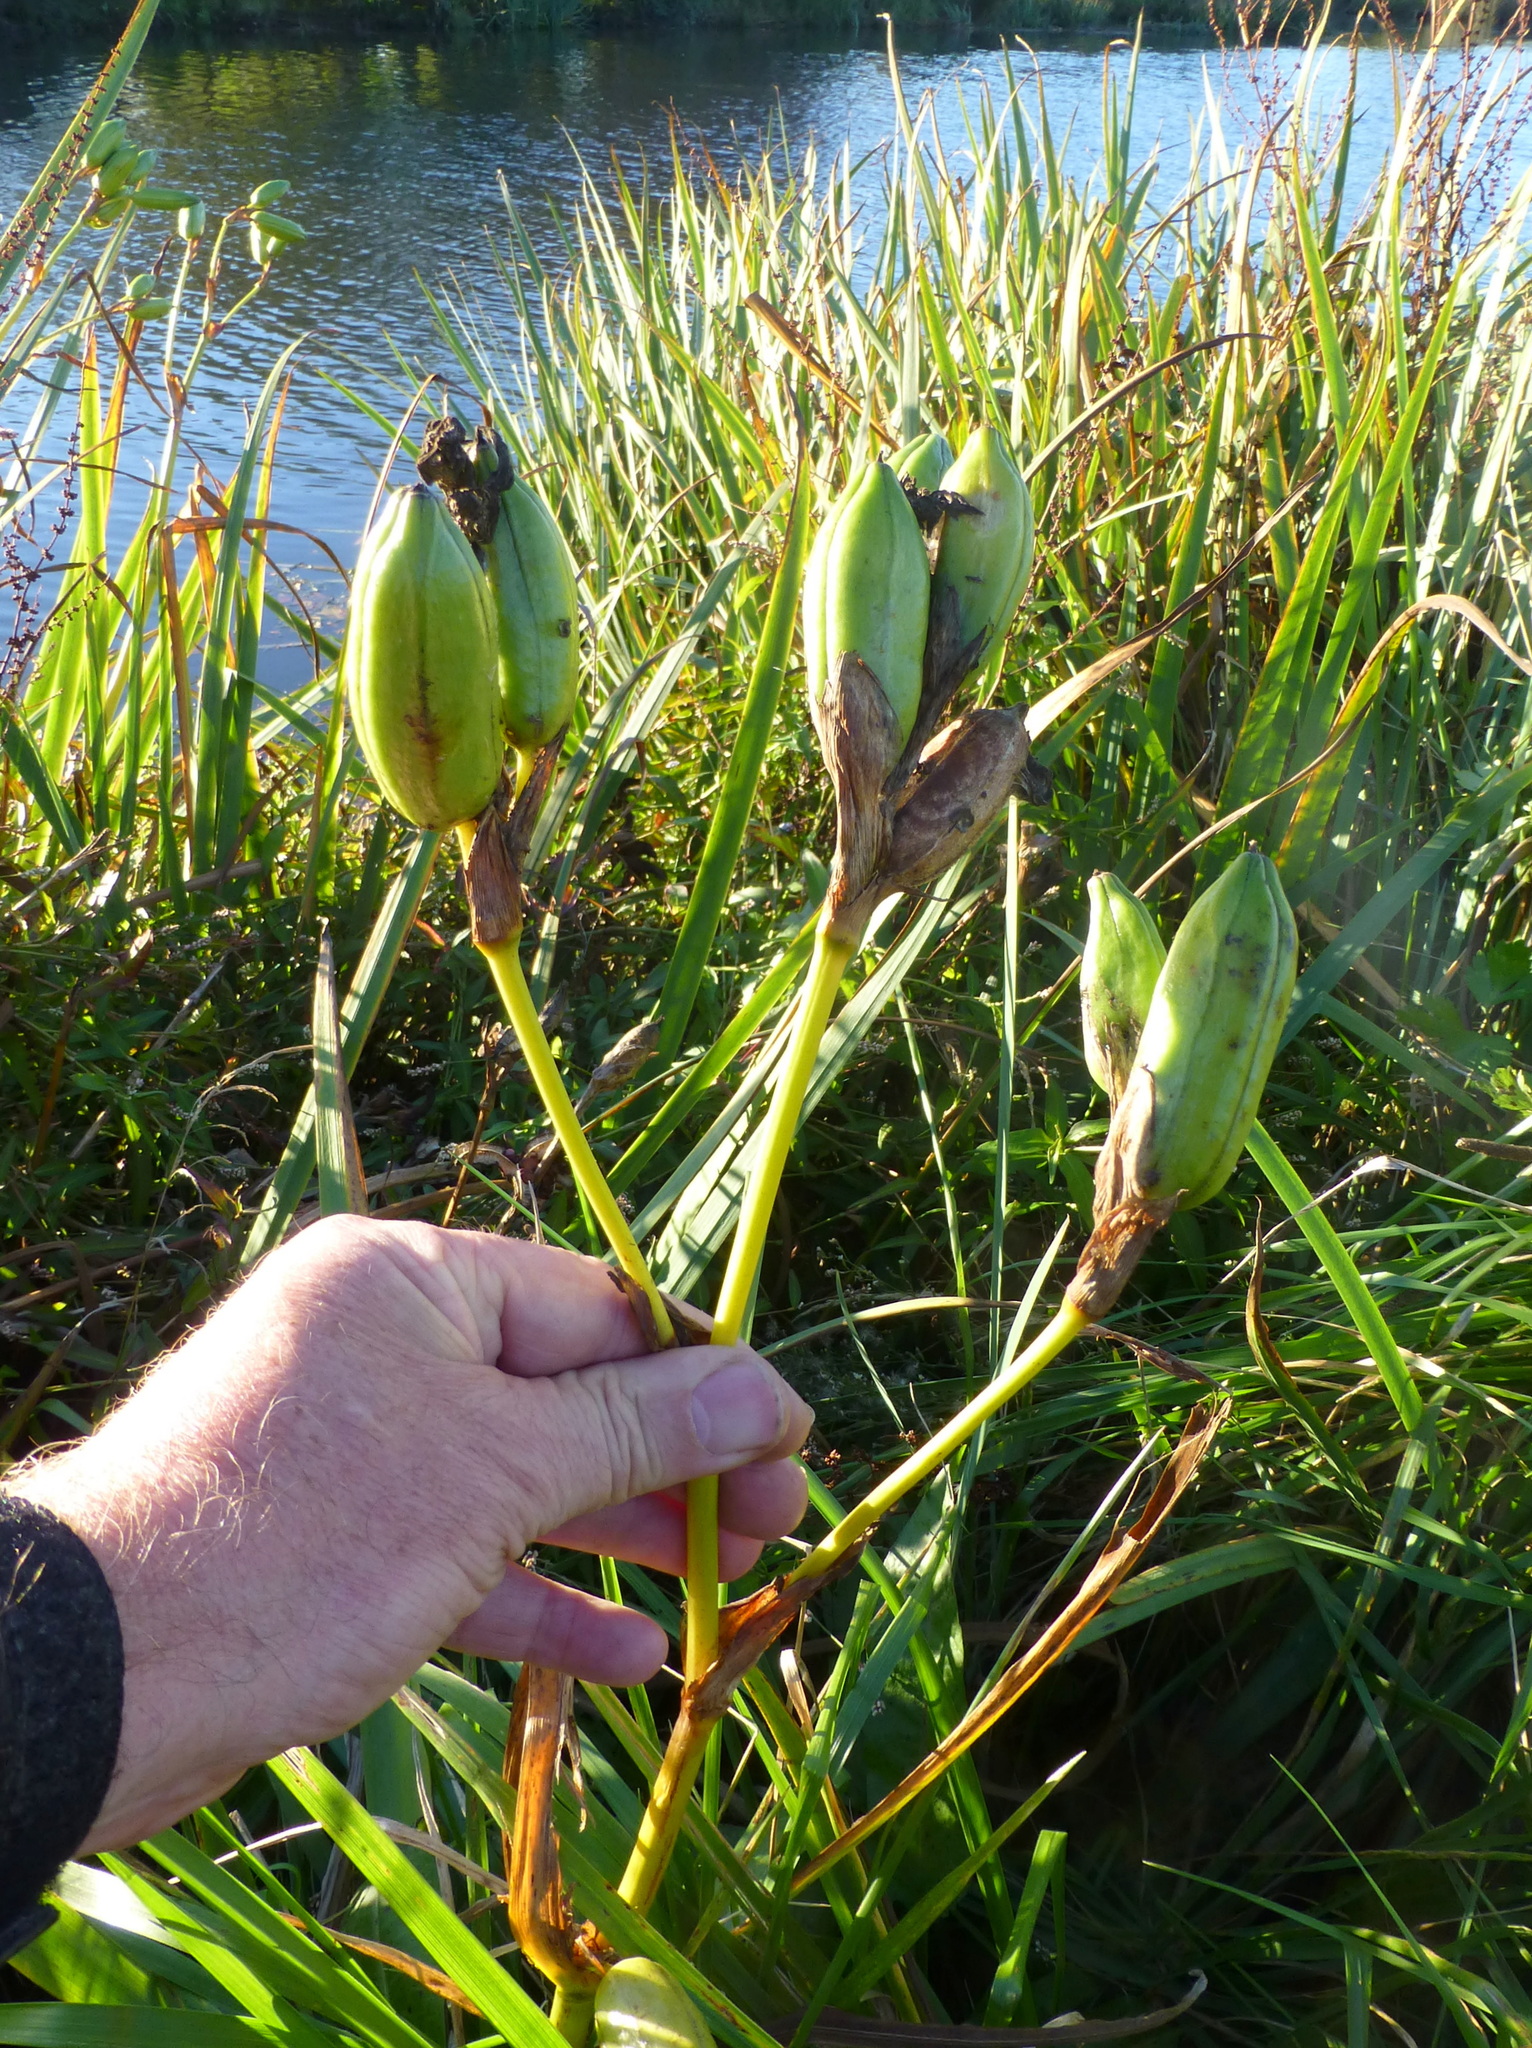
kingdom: Plantae
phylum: Tracheophyta
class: Liliopsida
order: Asparagales
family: Iridaceae
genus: Iris
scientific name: Iris pseudacorus
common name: Yellow flag
